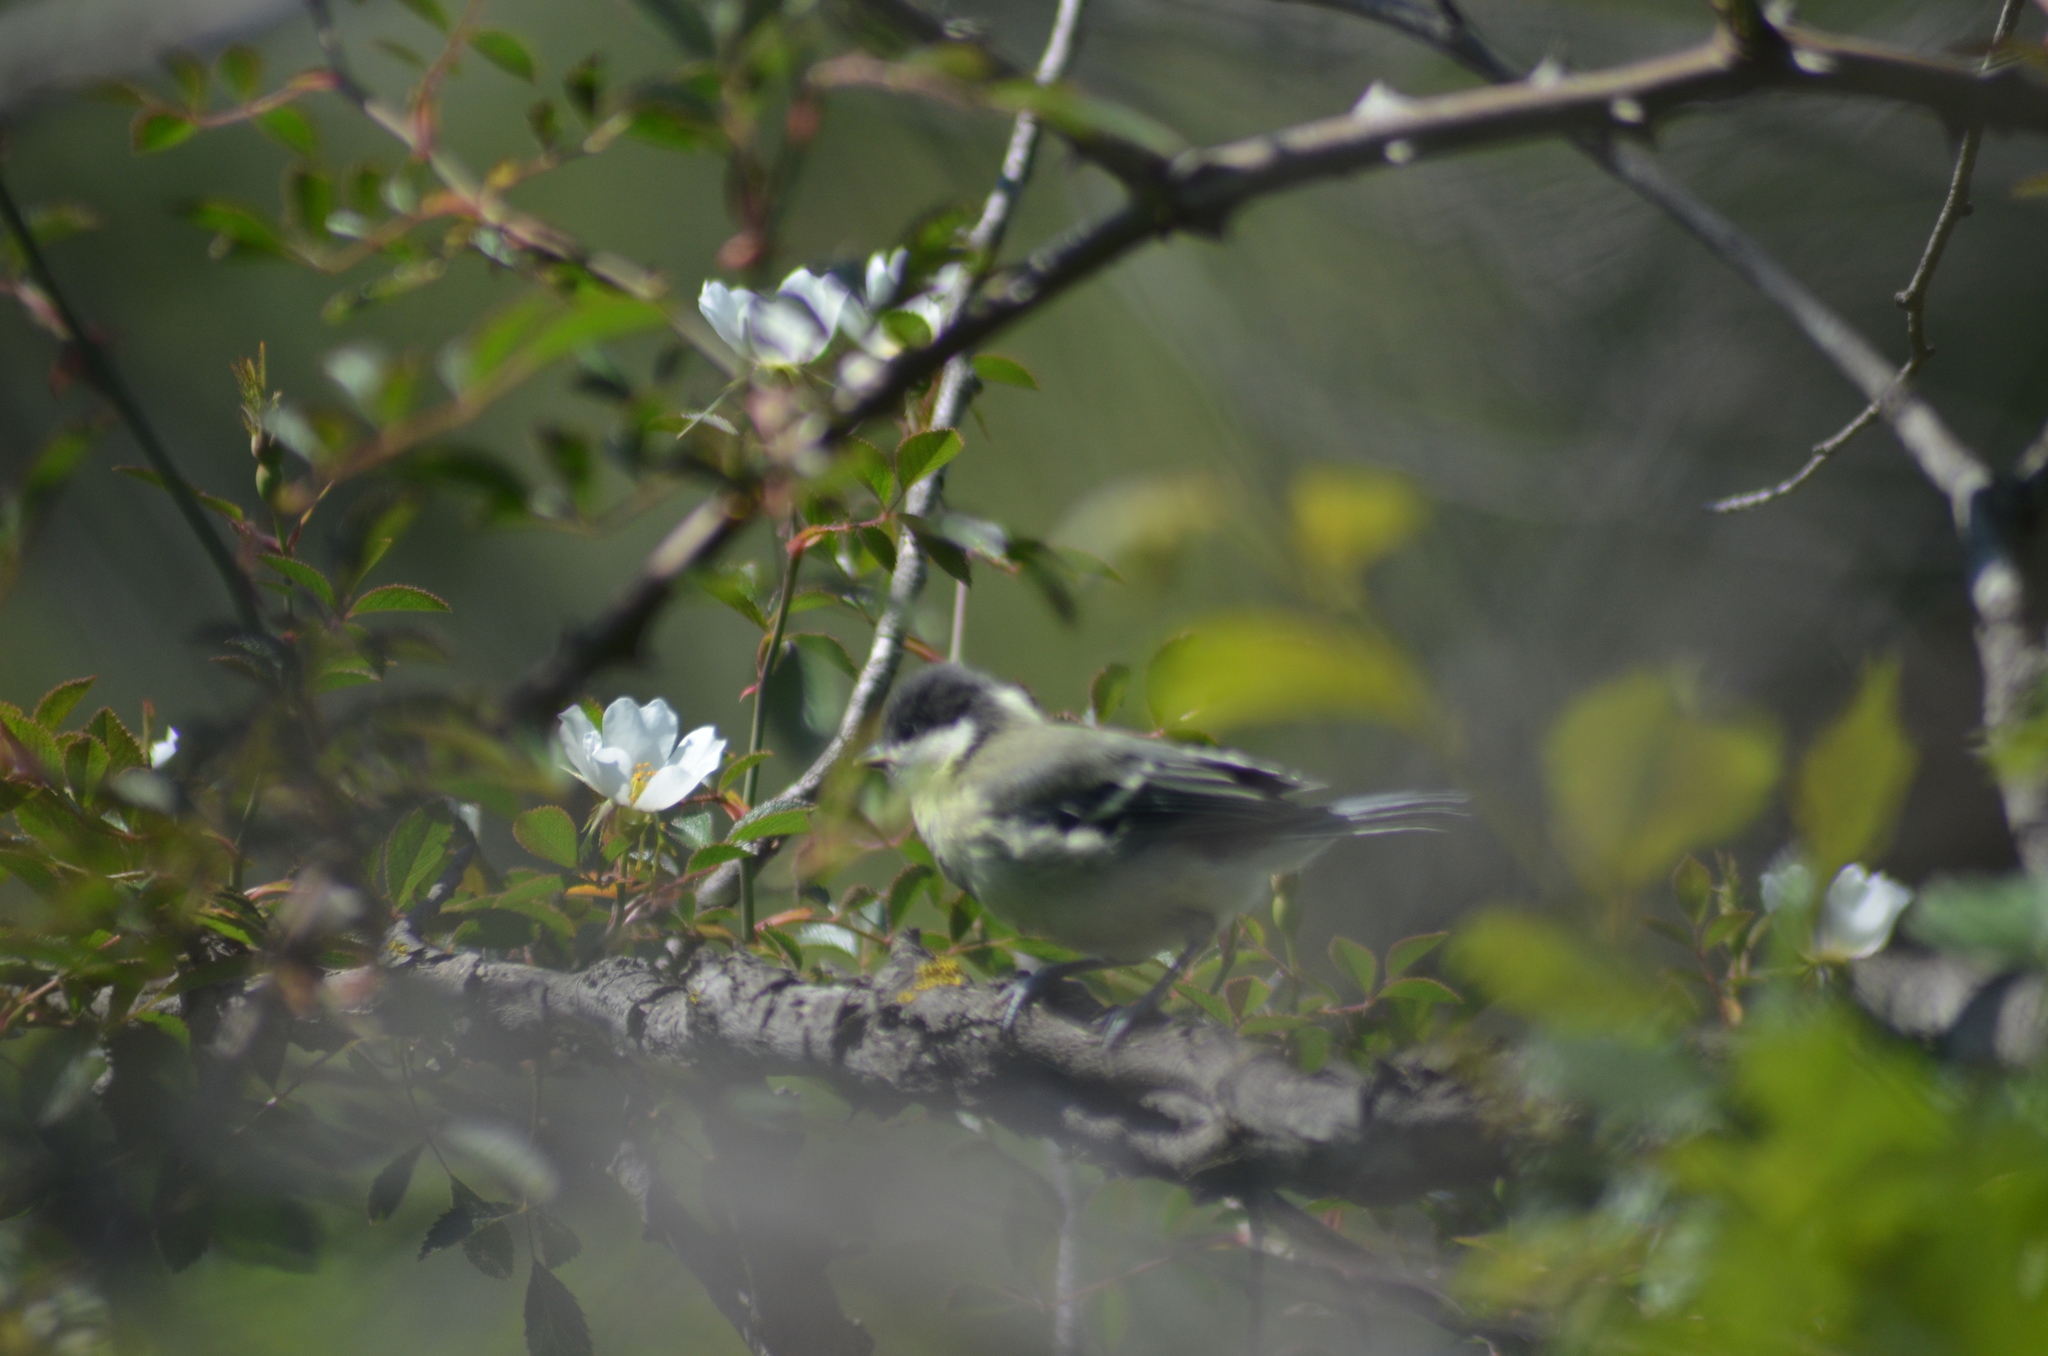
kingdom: Animalia
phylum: Chordata
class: Aves
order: Passeriformes
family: Paridae
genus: Parus
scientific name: Parus major
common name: Great tit
